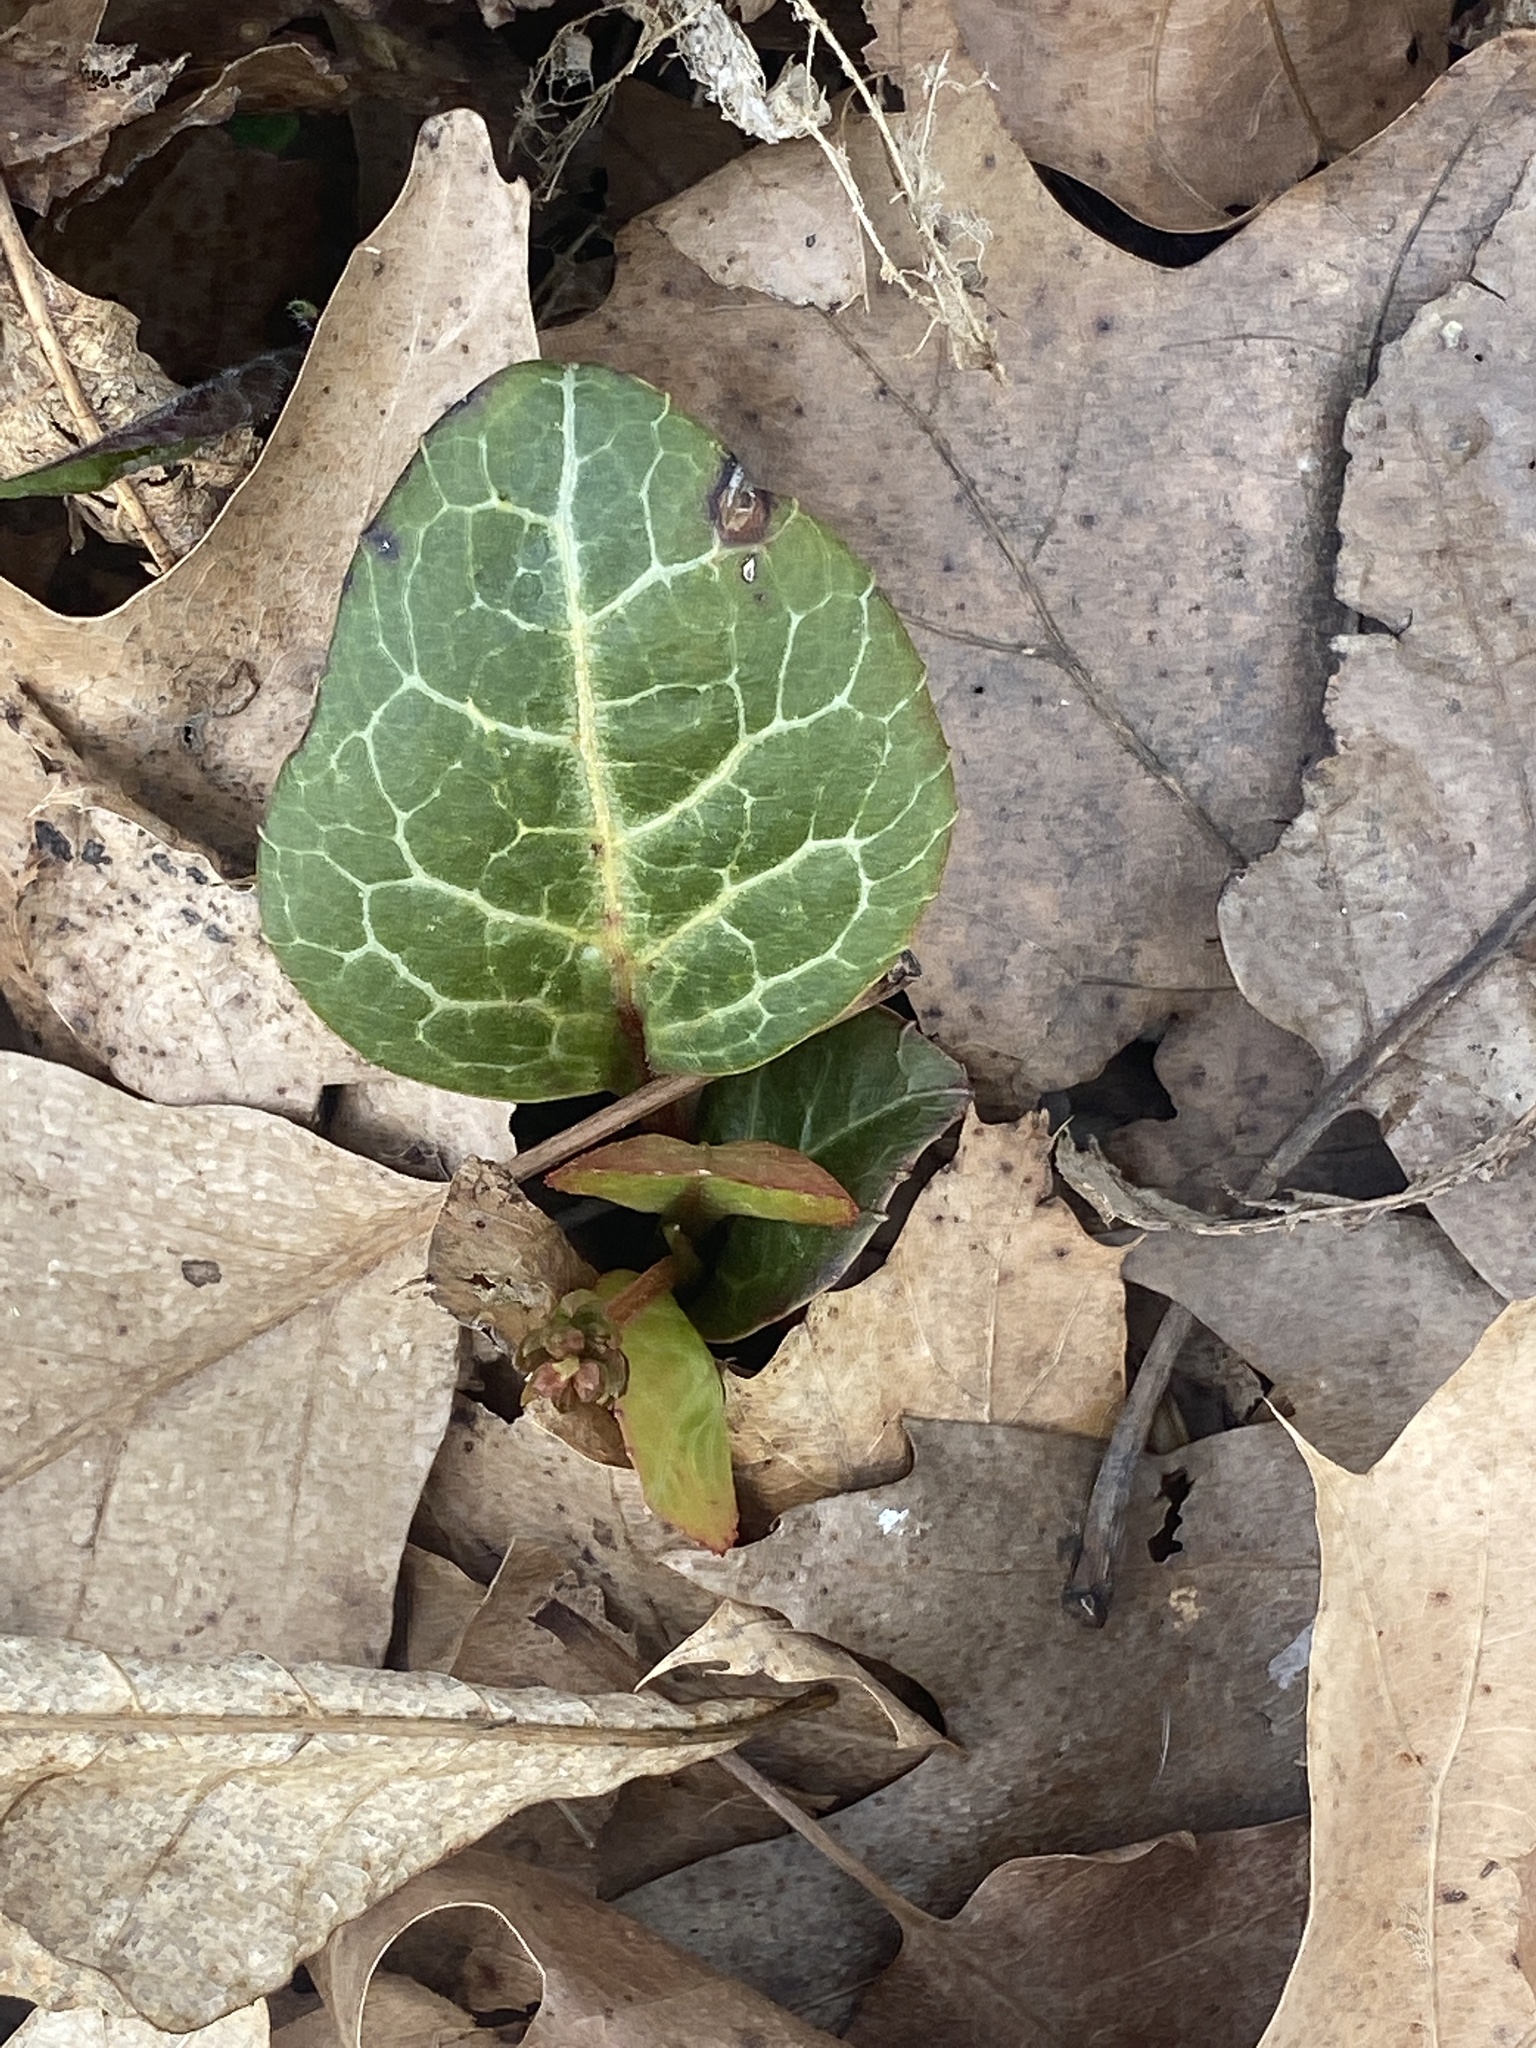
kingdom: Plantae
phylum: Tracheophyta
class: Magnoliopsida
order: Ericales
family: Ericaceae
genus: Pyrola
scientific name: Pyrola americana
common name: American wintergreen
